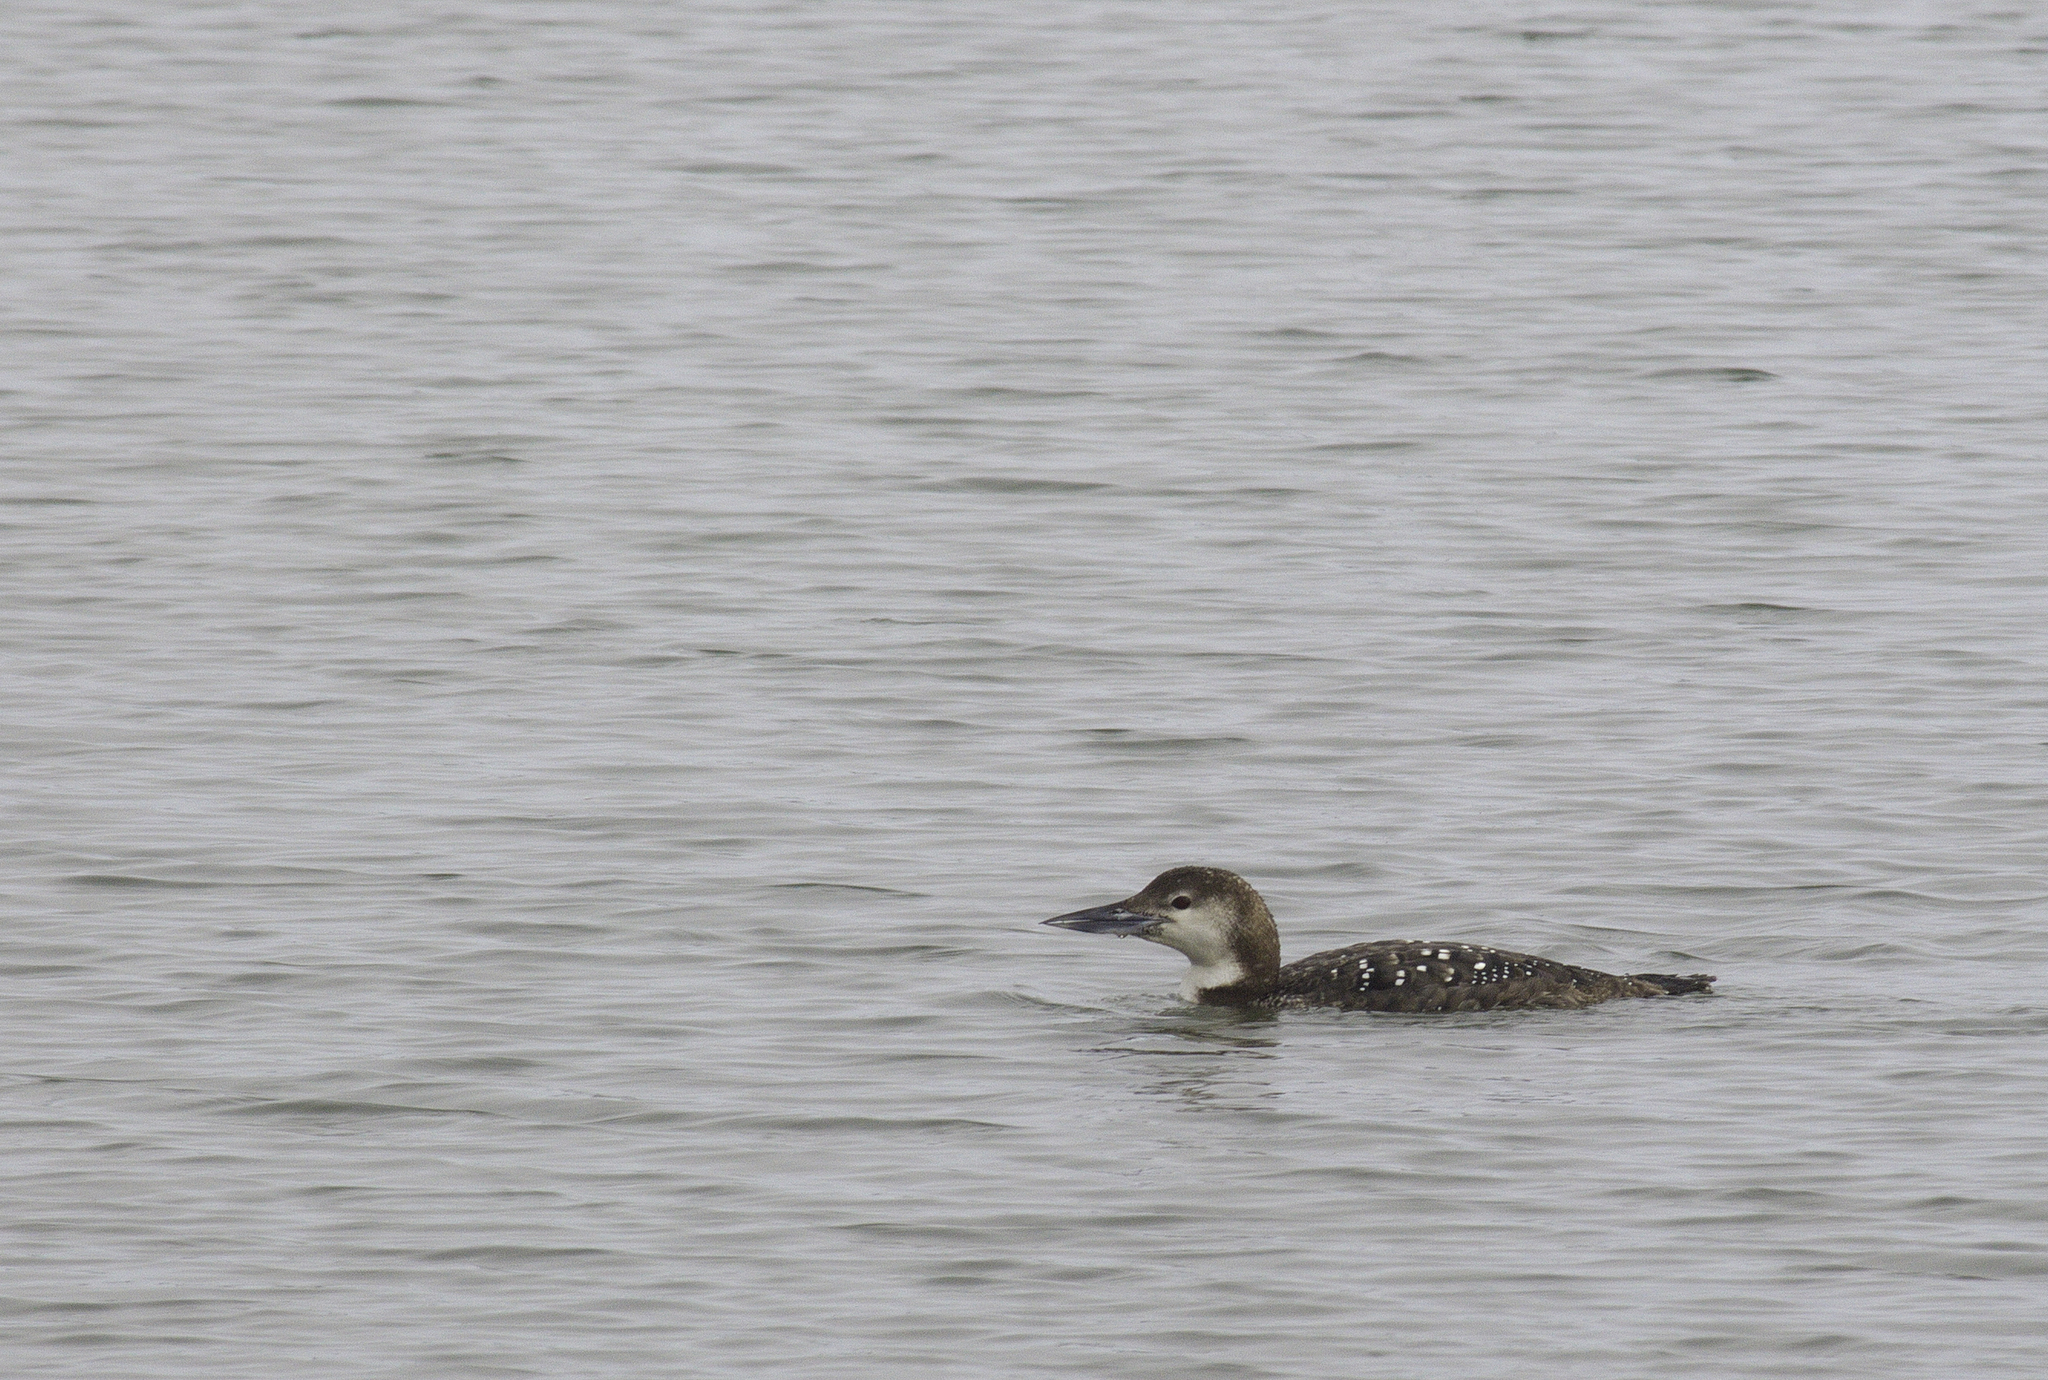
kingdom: Animalia
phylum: Chordata
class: Aves
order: Gaviiformes
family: Gaviidae
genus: Gavia
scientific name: Gavia immer
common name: Common loon
